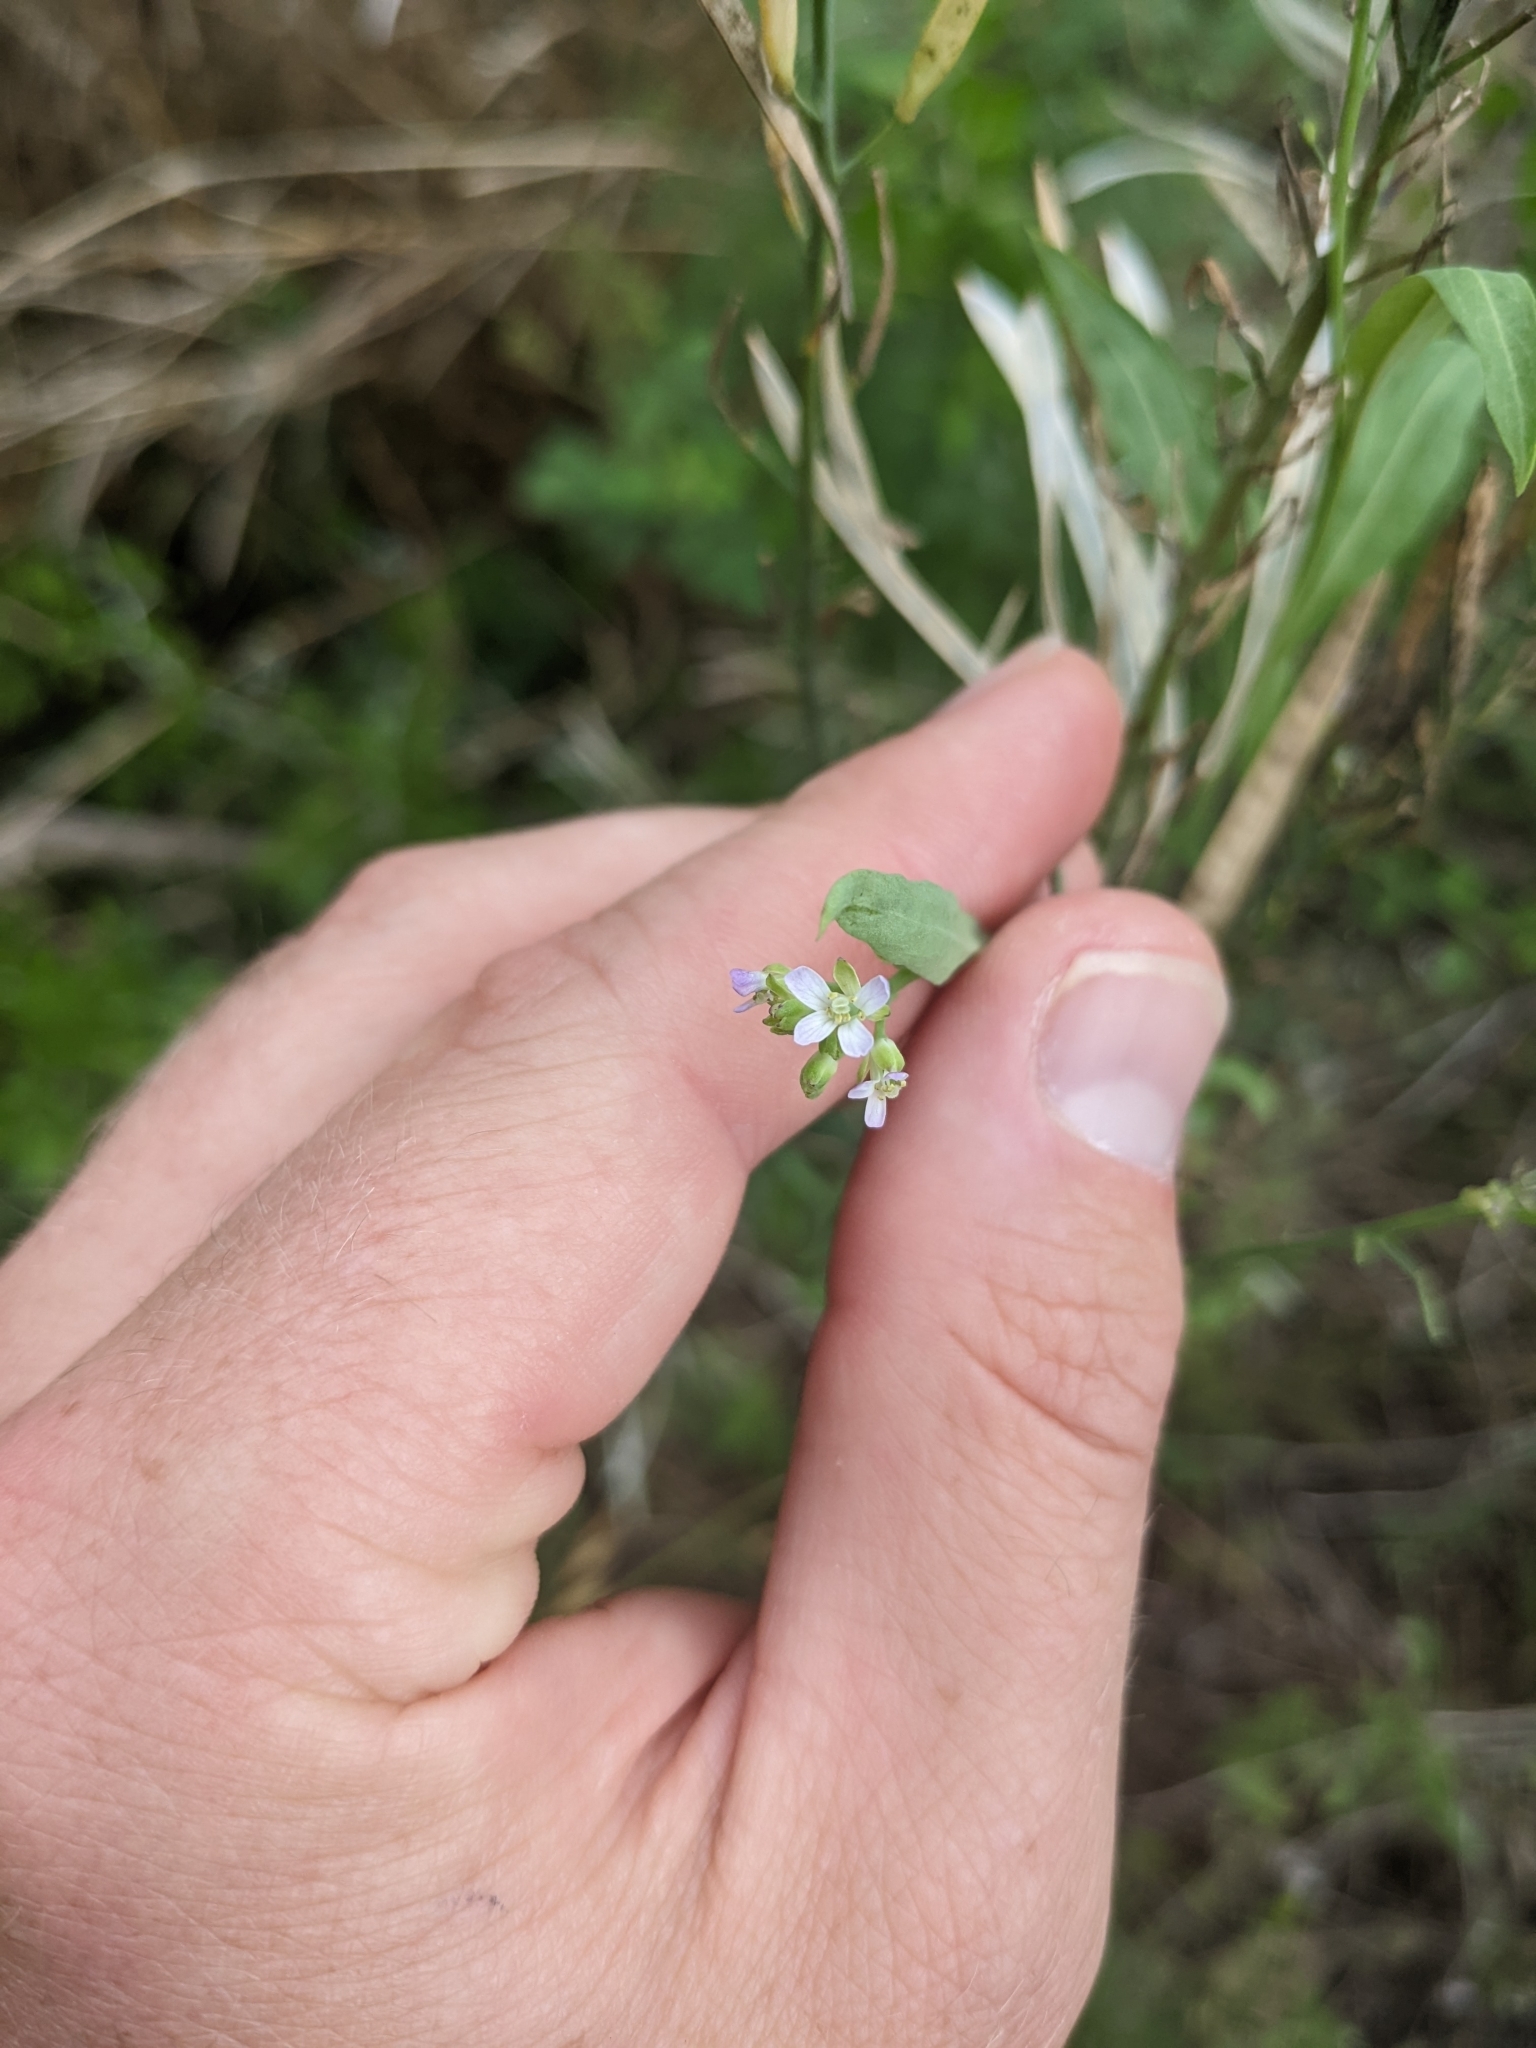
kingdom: Plantae
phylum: Tracheophyta
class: Magnoliopsida
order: Brassicales
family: Brassicaceae
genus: Streptanthus
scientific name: Streptanthus petiolaris
